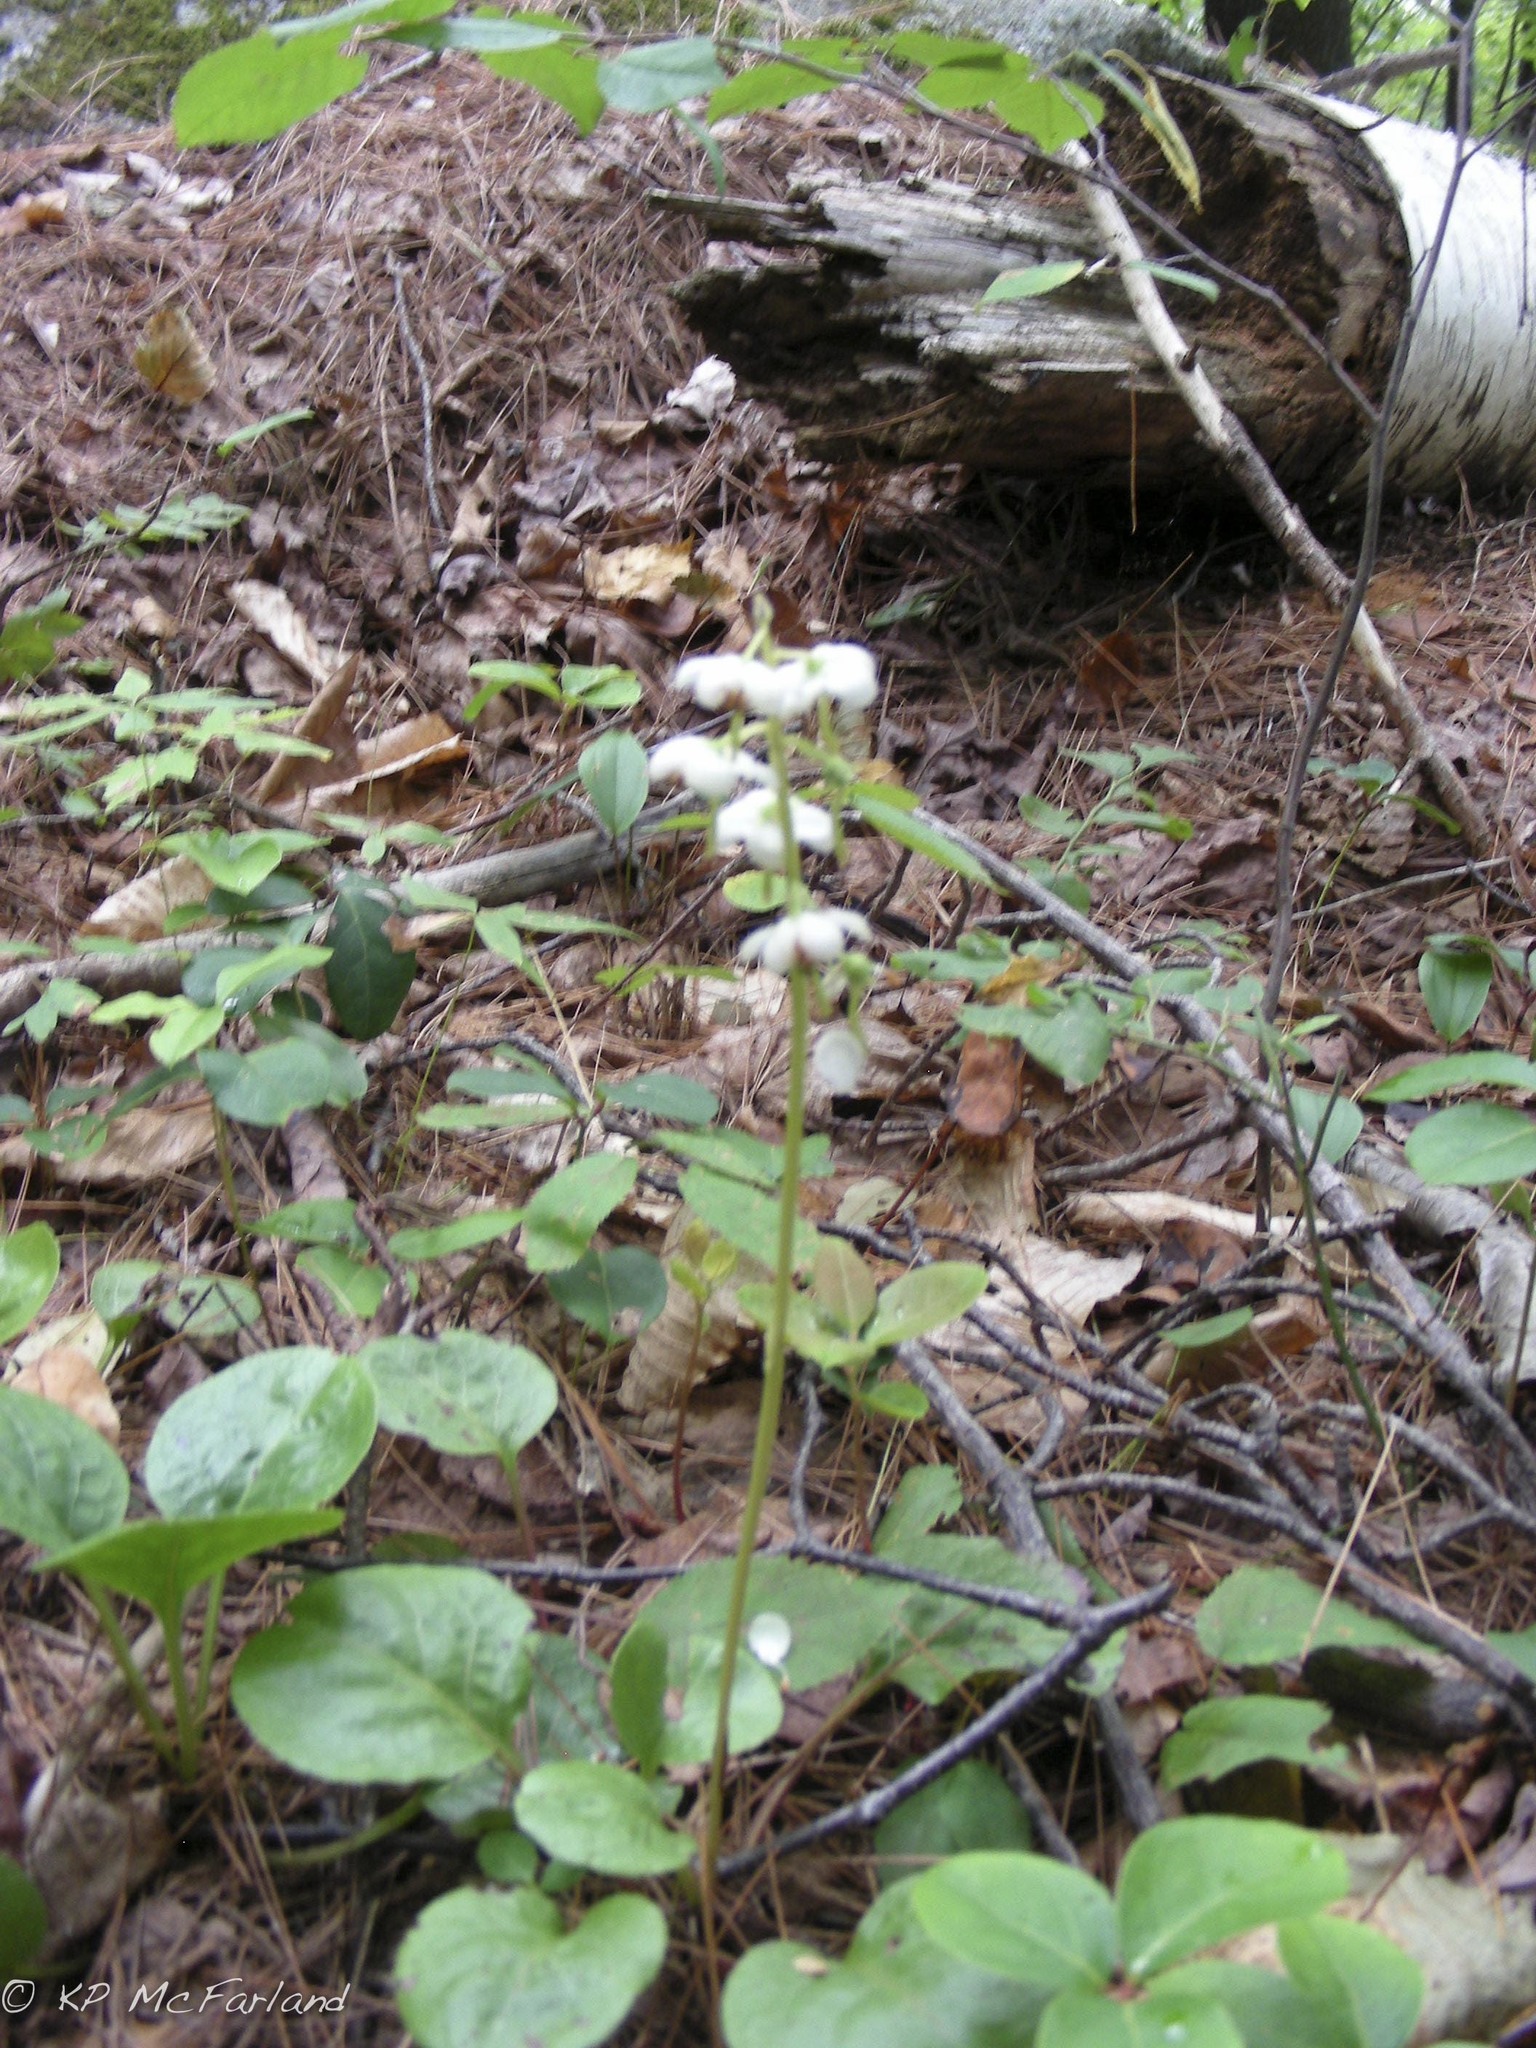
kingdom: Plantae
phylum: Tracheophyta
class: Magnoliopsida
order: Ericales
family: Ericaceae
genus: Pyrola
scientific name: Pyrola americana
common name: American wintergreen
